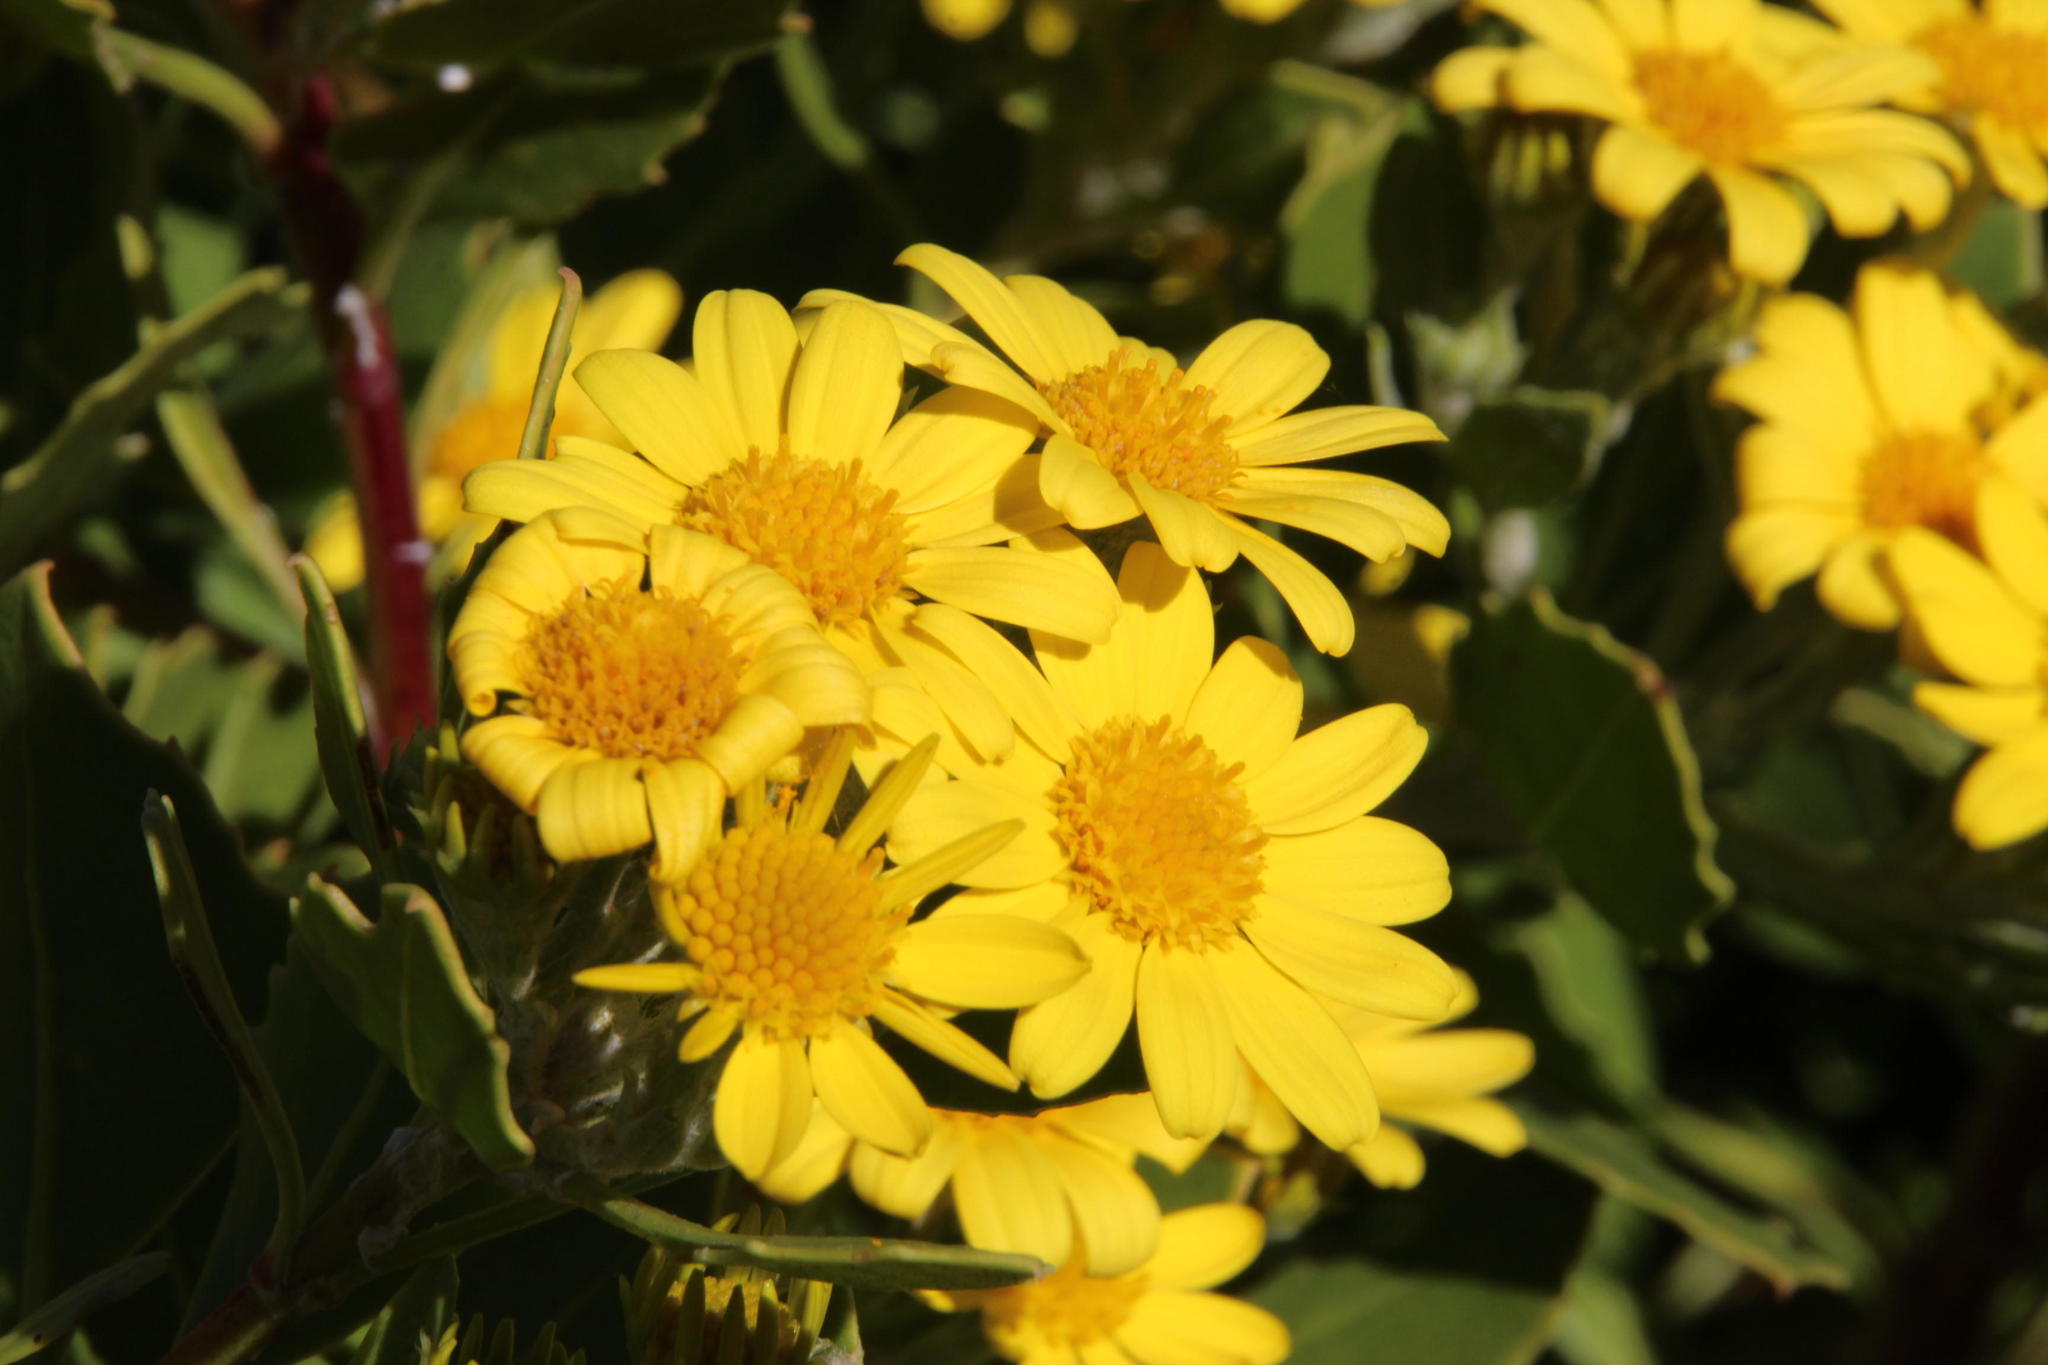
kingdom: Plantae
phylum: Tracheophyta
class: Magnoliopsida
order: Asterales
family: Asteraceae
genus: Osteospermum
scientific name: Osteospermum moniliferum
